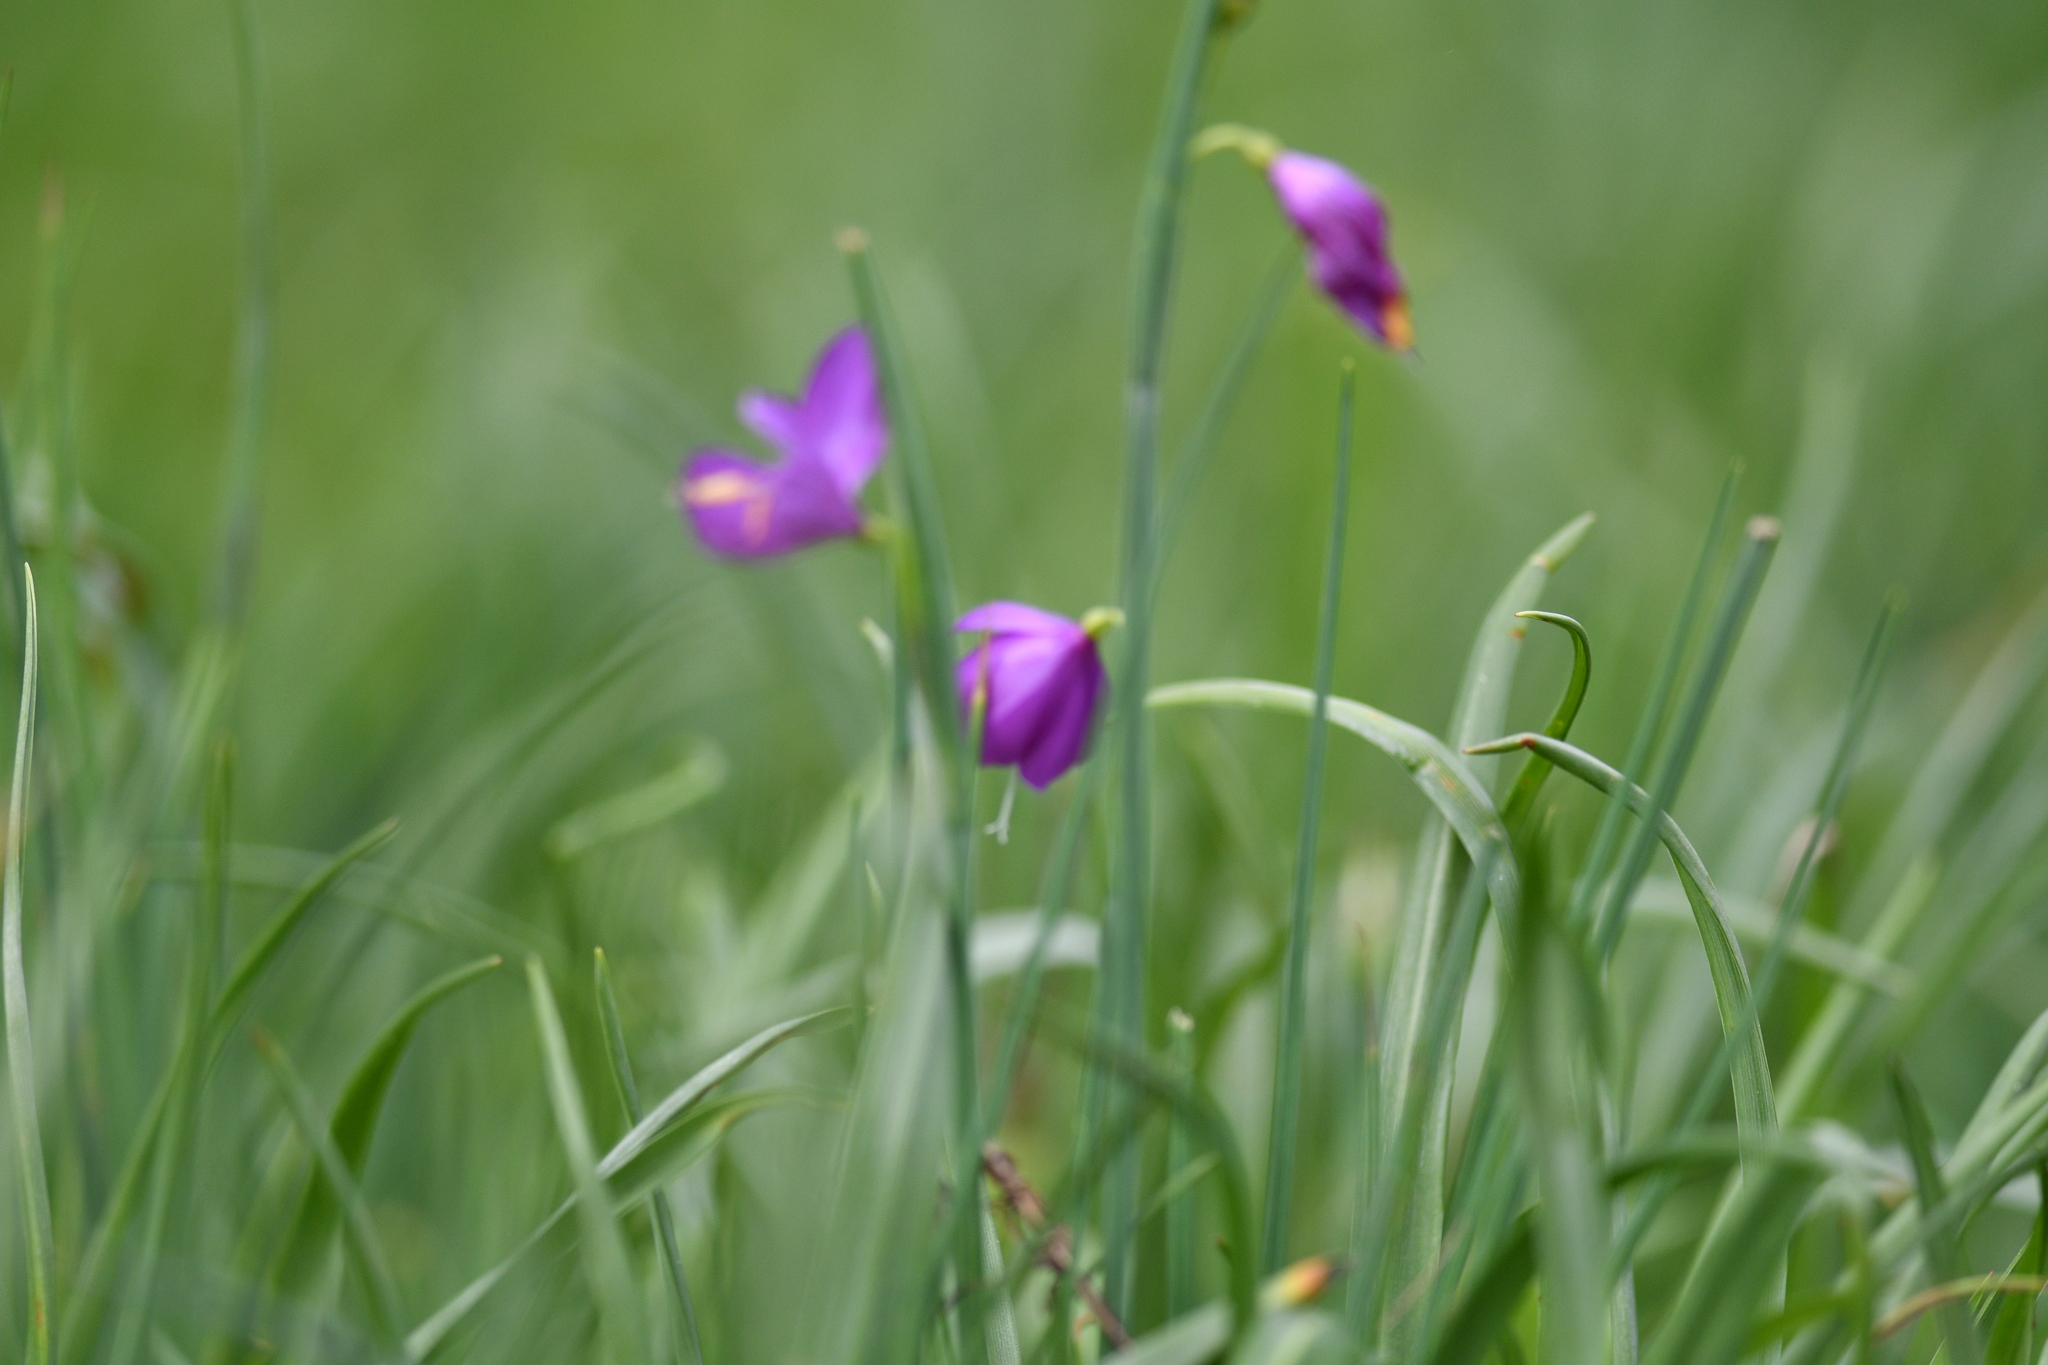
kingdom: Plantae
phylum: Tracheophyta
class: Liliopsida
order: Asparagales
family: Iridaceae
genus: Olsynium
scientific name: Olsynium douglasii
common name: Douglas' grasswidow
